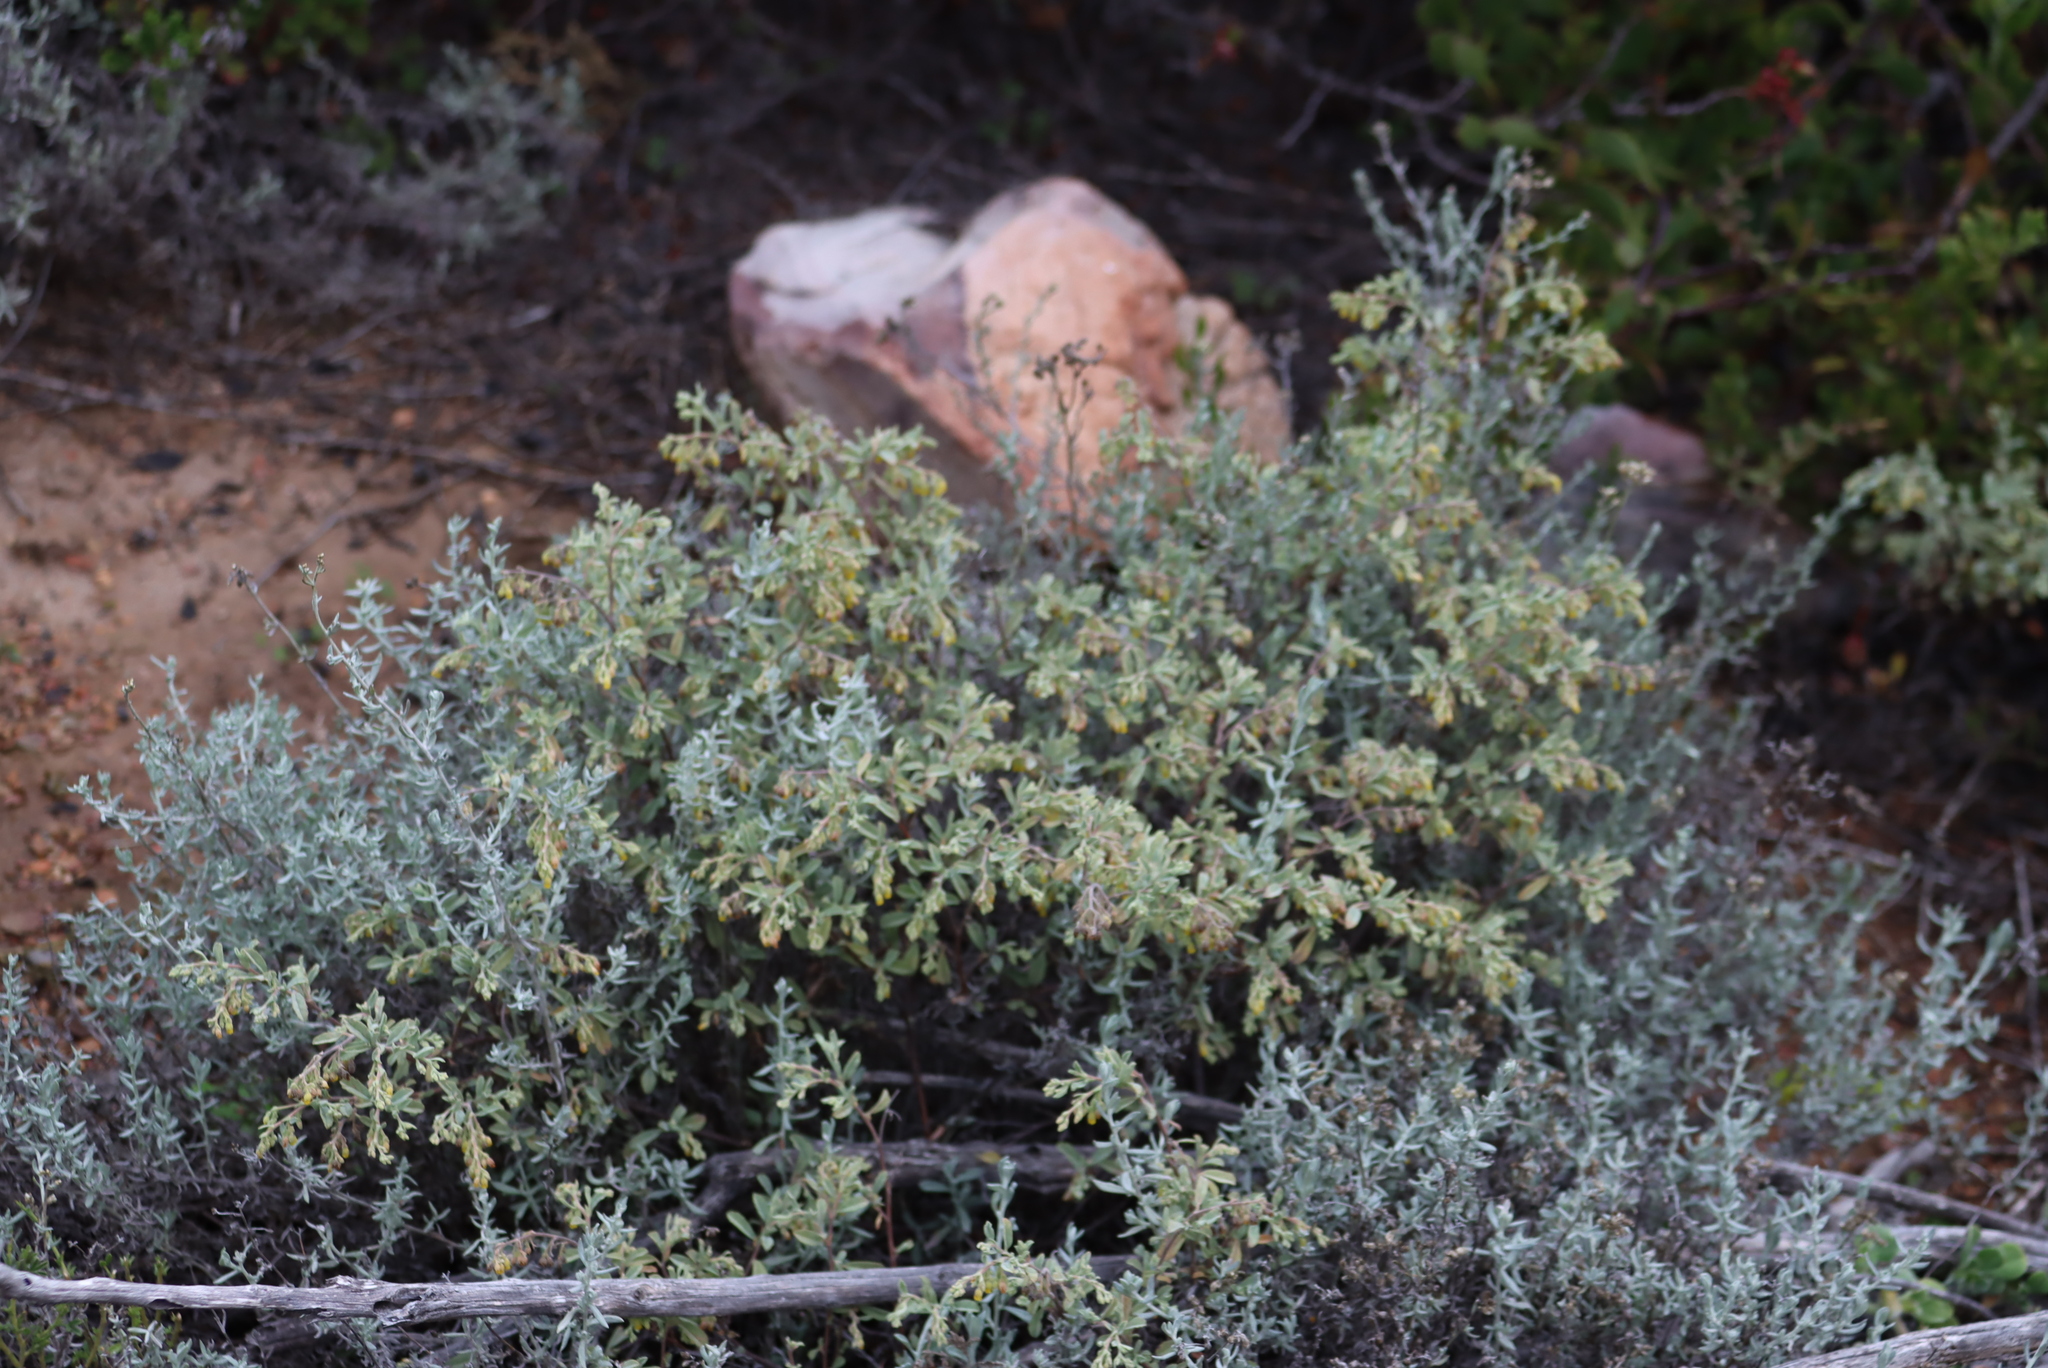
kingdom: Plantae
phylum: Tracheophyta
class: Magnoliopsida
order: Malvales
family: Malvaceae
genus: Hermannia
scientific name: Hermannia holosericea
